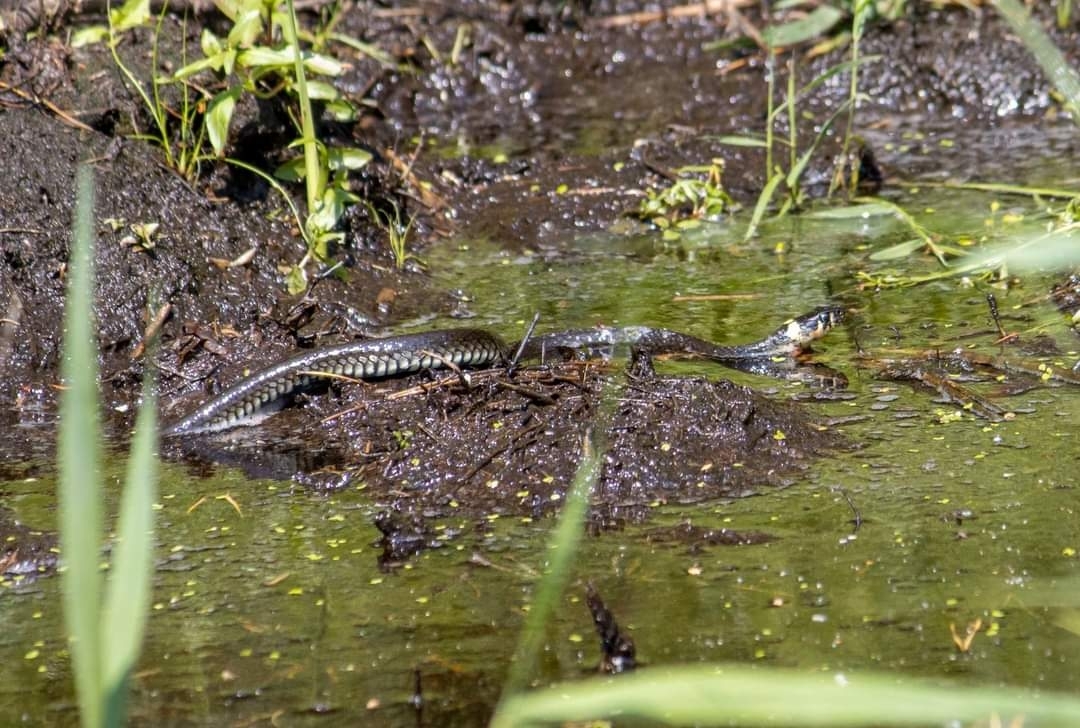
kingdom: Animalia
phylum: Chordata
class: Squamata
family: Colubridae
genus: Natrix
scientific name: Natrix natrix
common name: Grass snake
